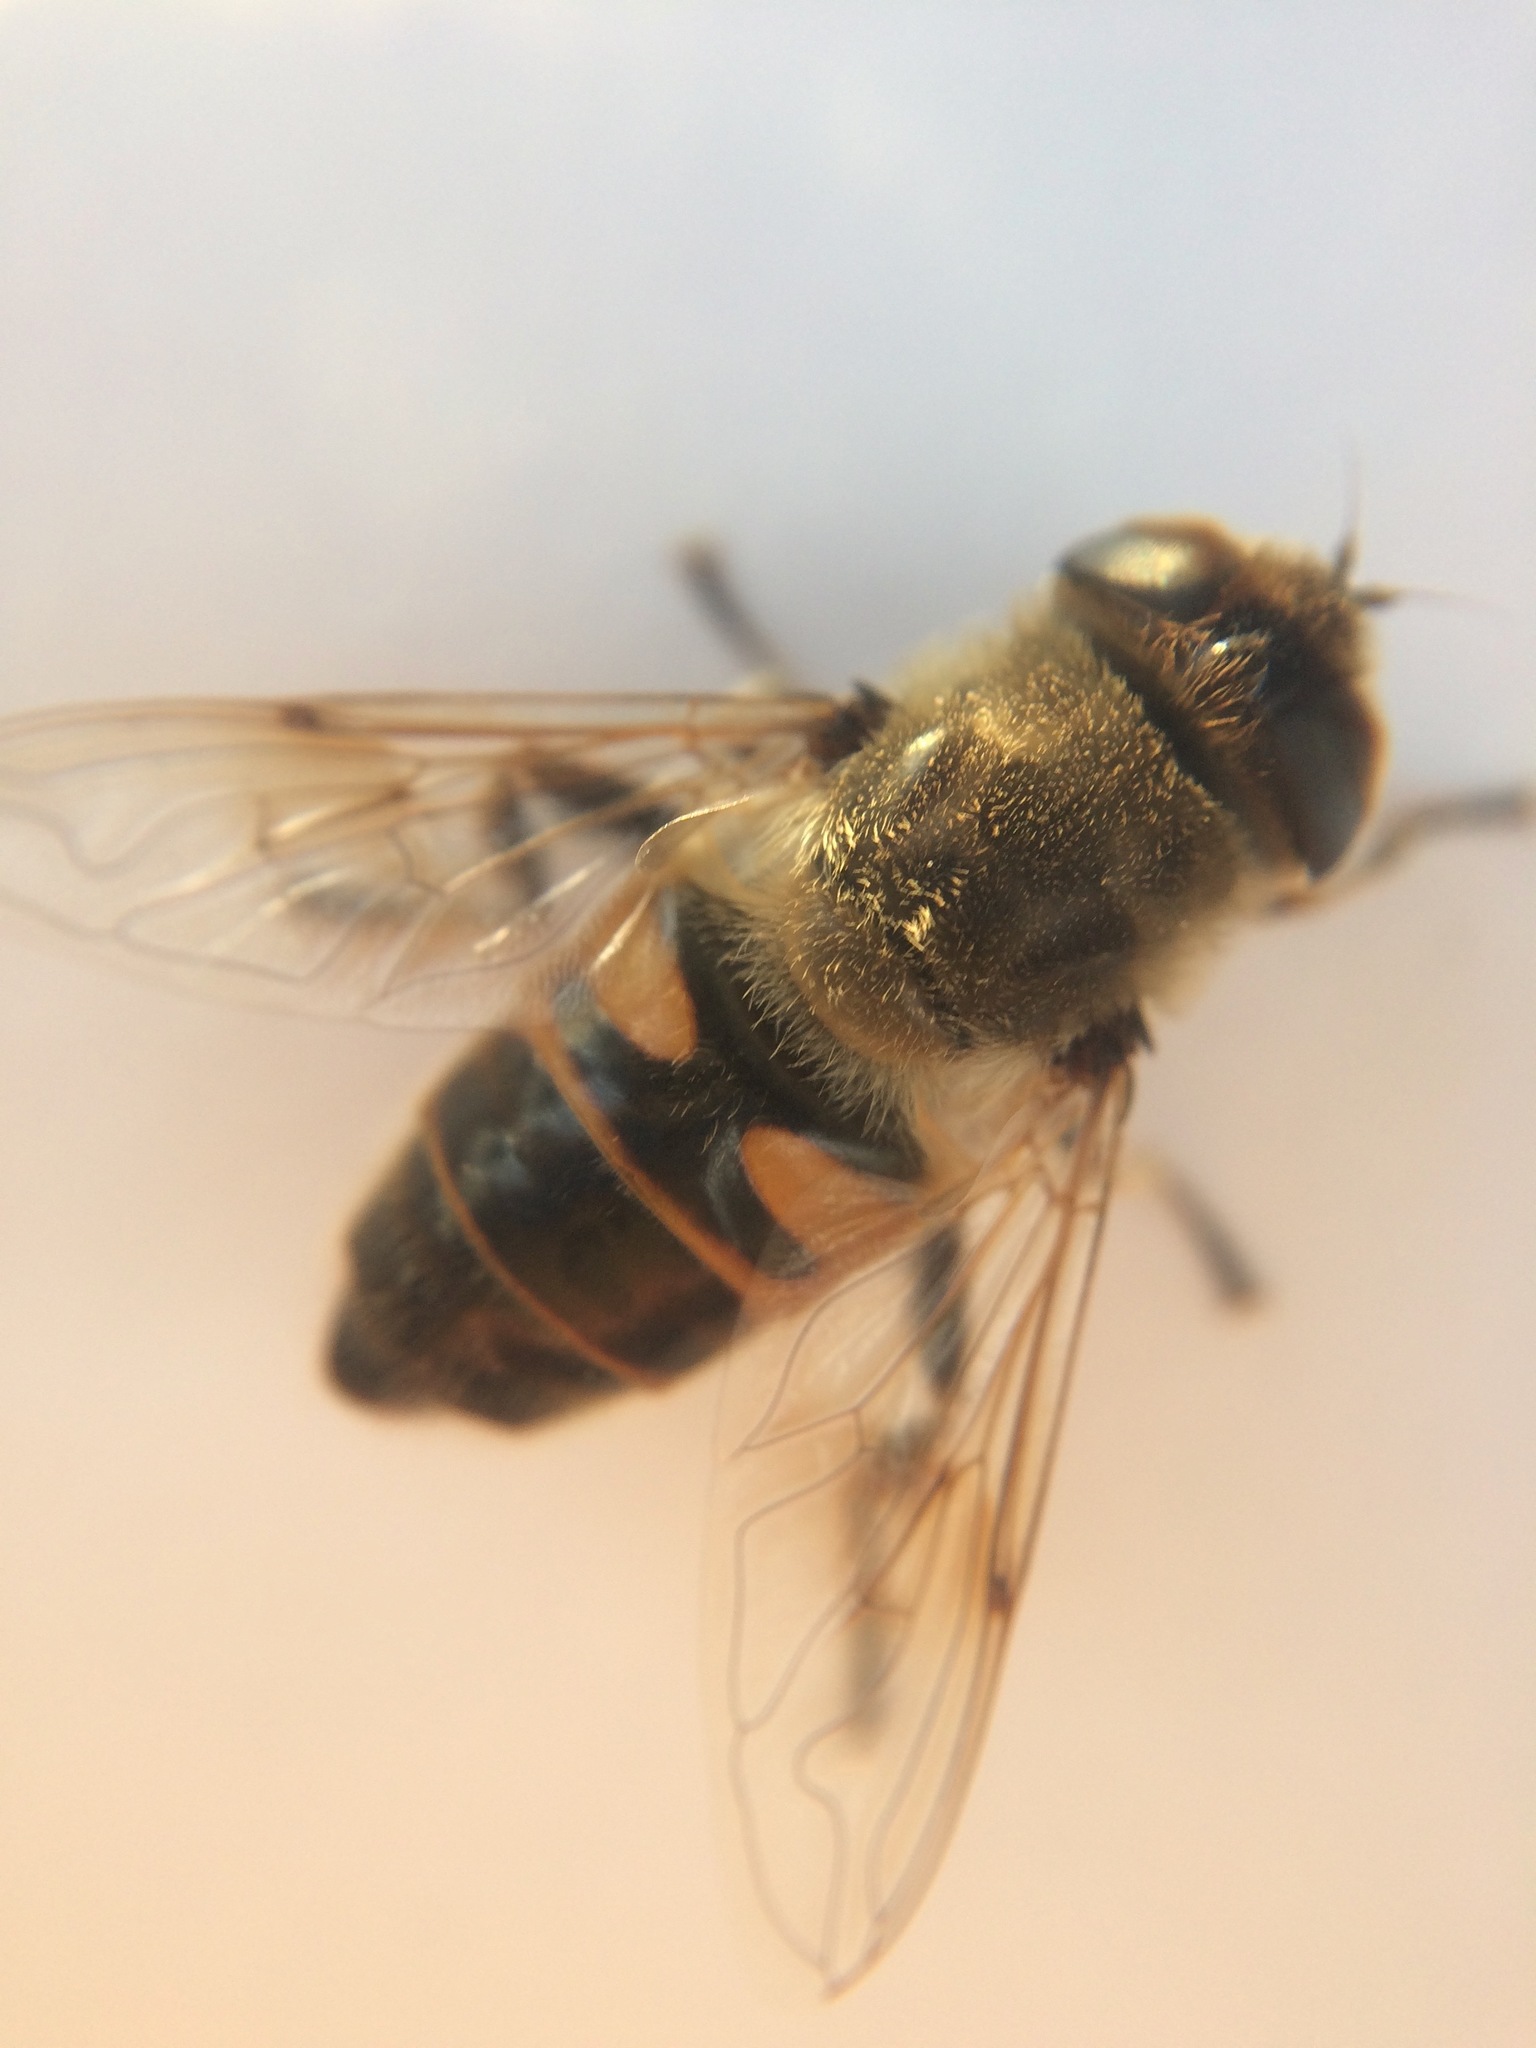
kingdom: Animalia
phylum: Arthropoda
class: Insecta
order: Diptera
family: Syrphidae
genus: Eristalis
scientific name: Eristalis tenax
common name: Drone fly
